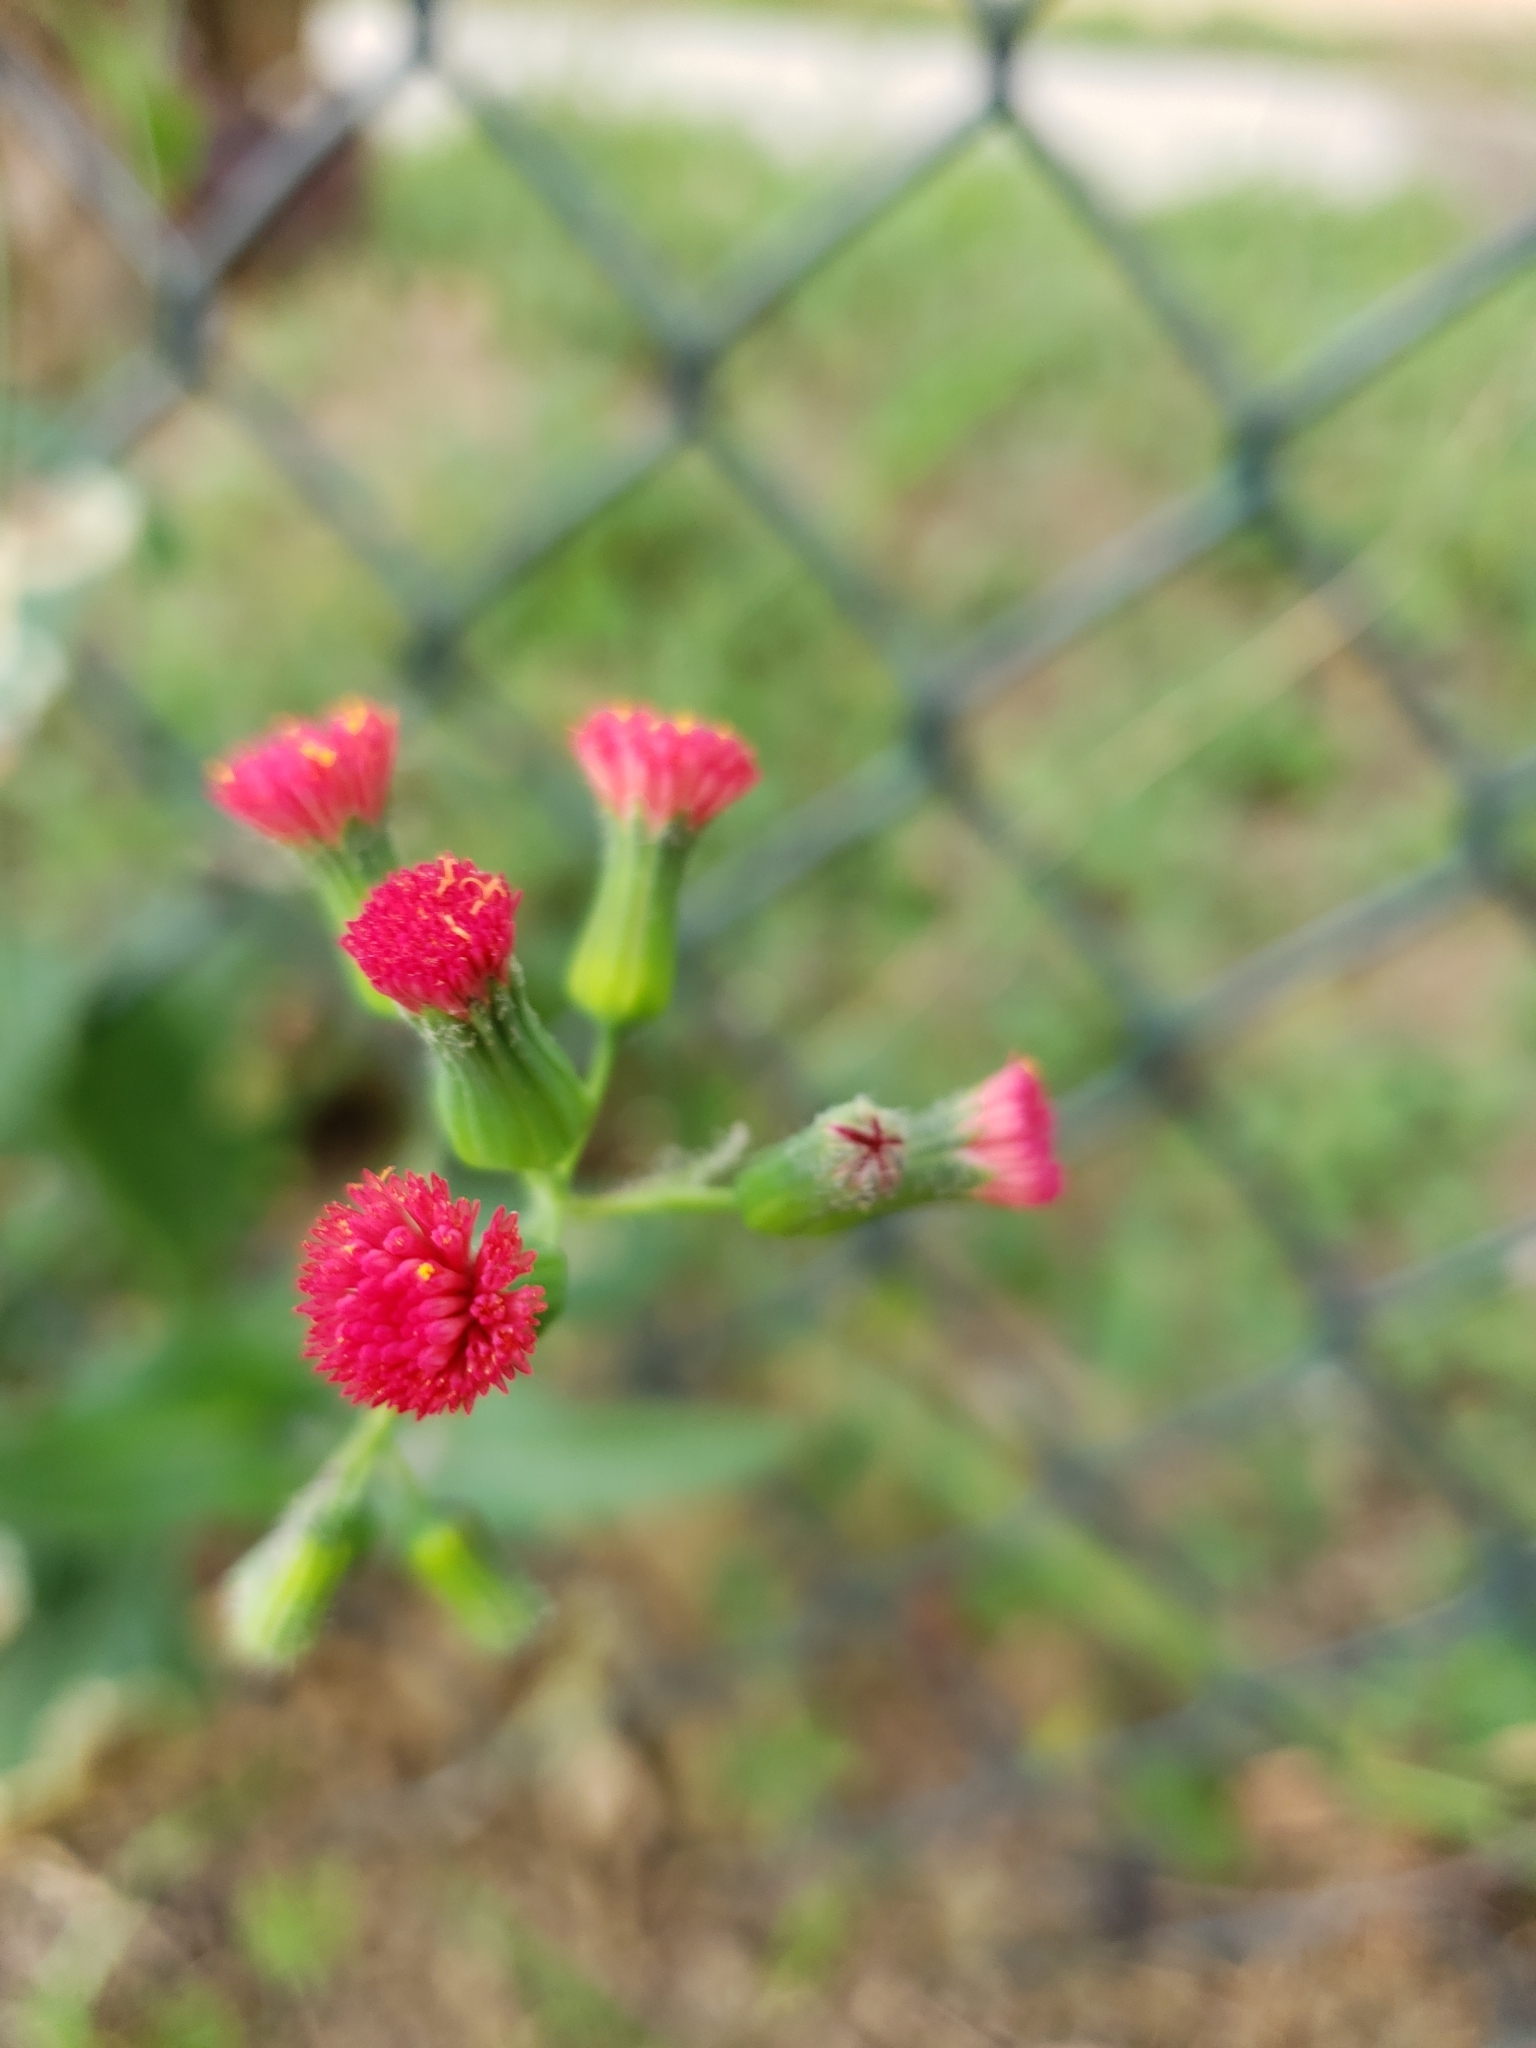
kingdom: Plantae
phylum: Tracheophyta
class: Magnoliopsida
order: Asterales
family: Asteraceae
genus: Emilia
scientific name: Emilia fosbergii
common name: Florida tasselflower
